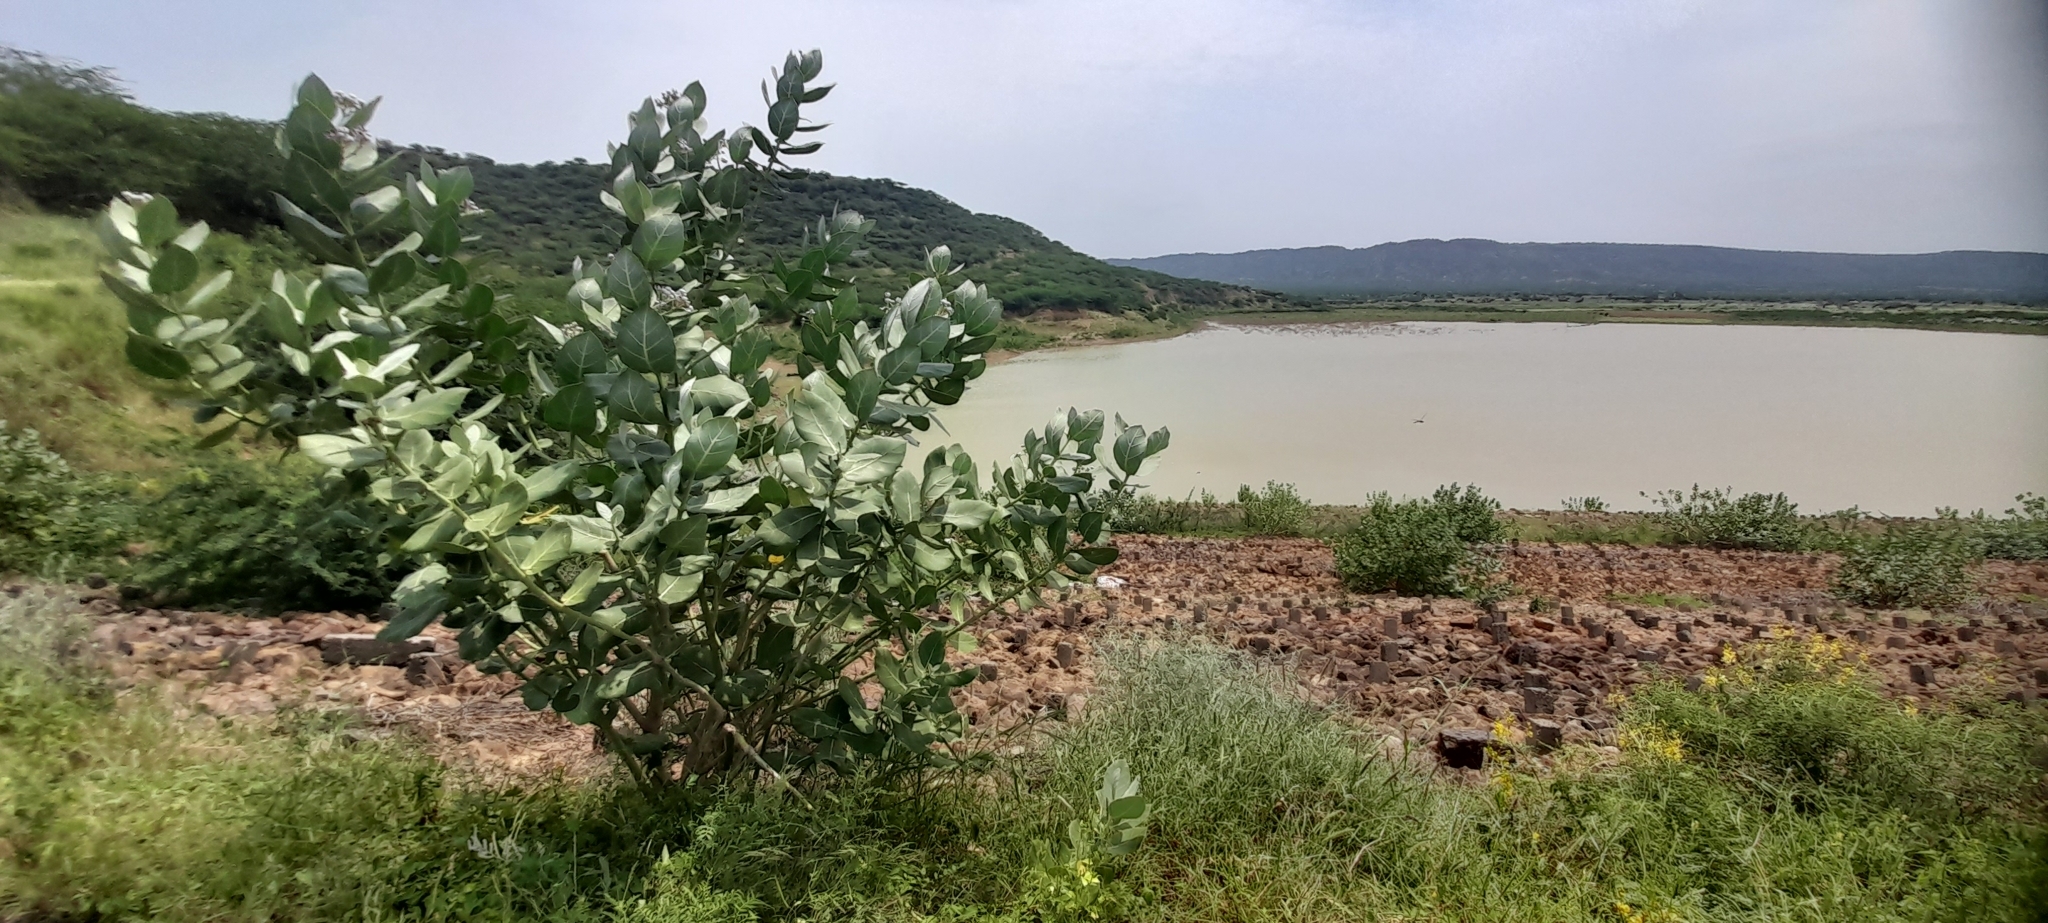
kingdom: Plantae
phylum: Tracheophyta
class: Magnoliopsida
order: Gentianales
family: Apocynaceae
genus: Calotropis
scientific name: Calotropis procera
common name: Roostertree
